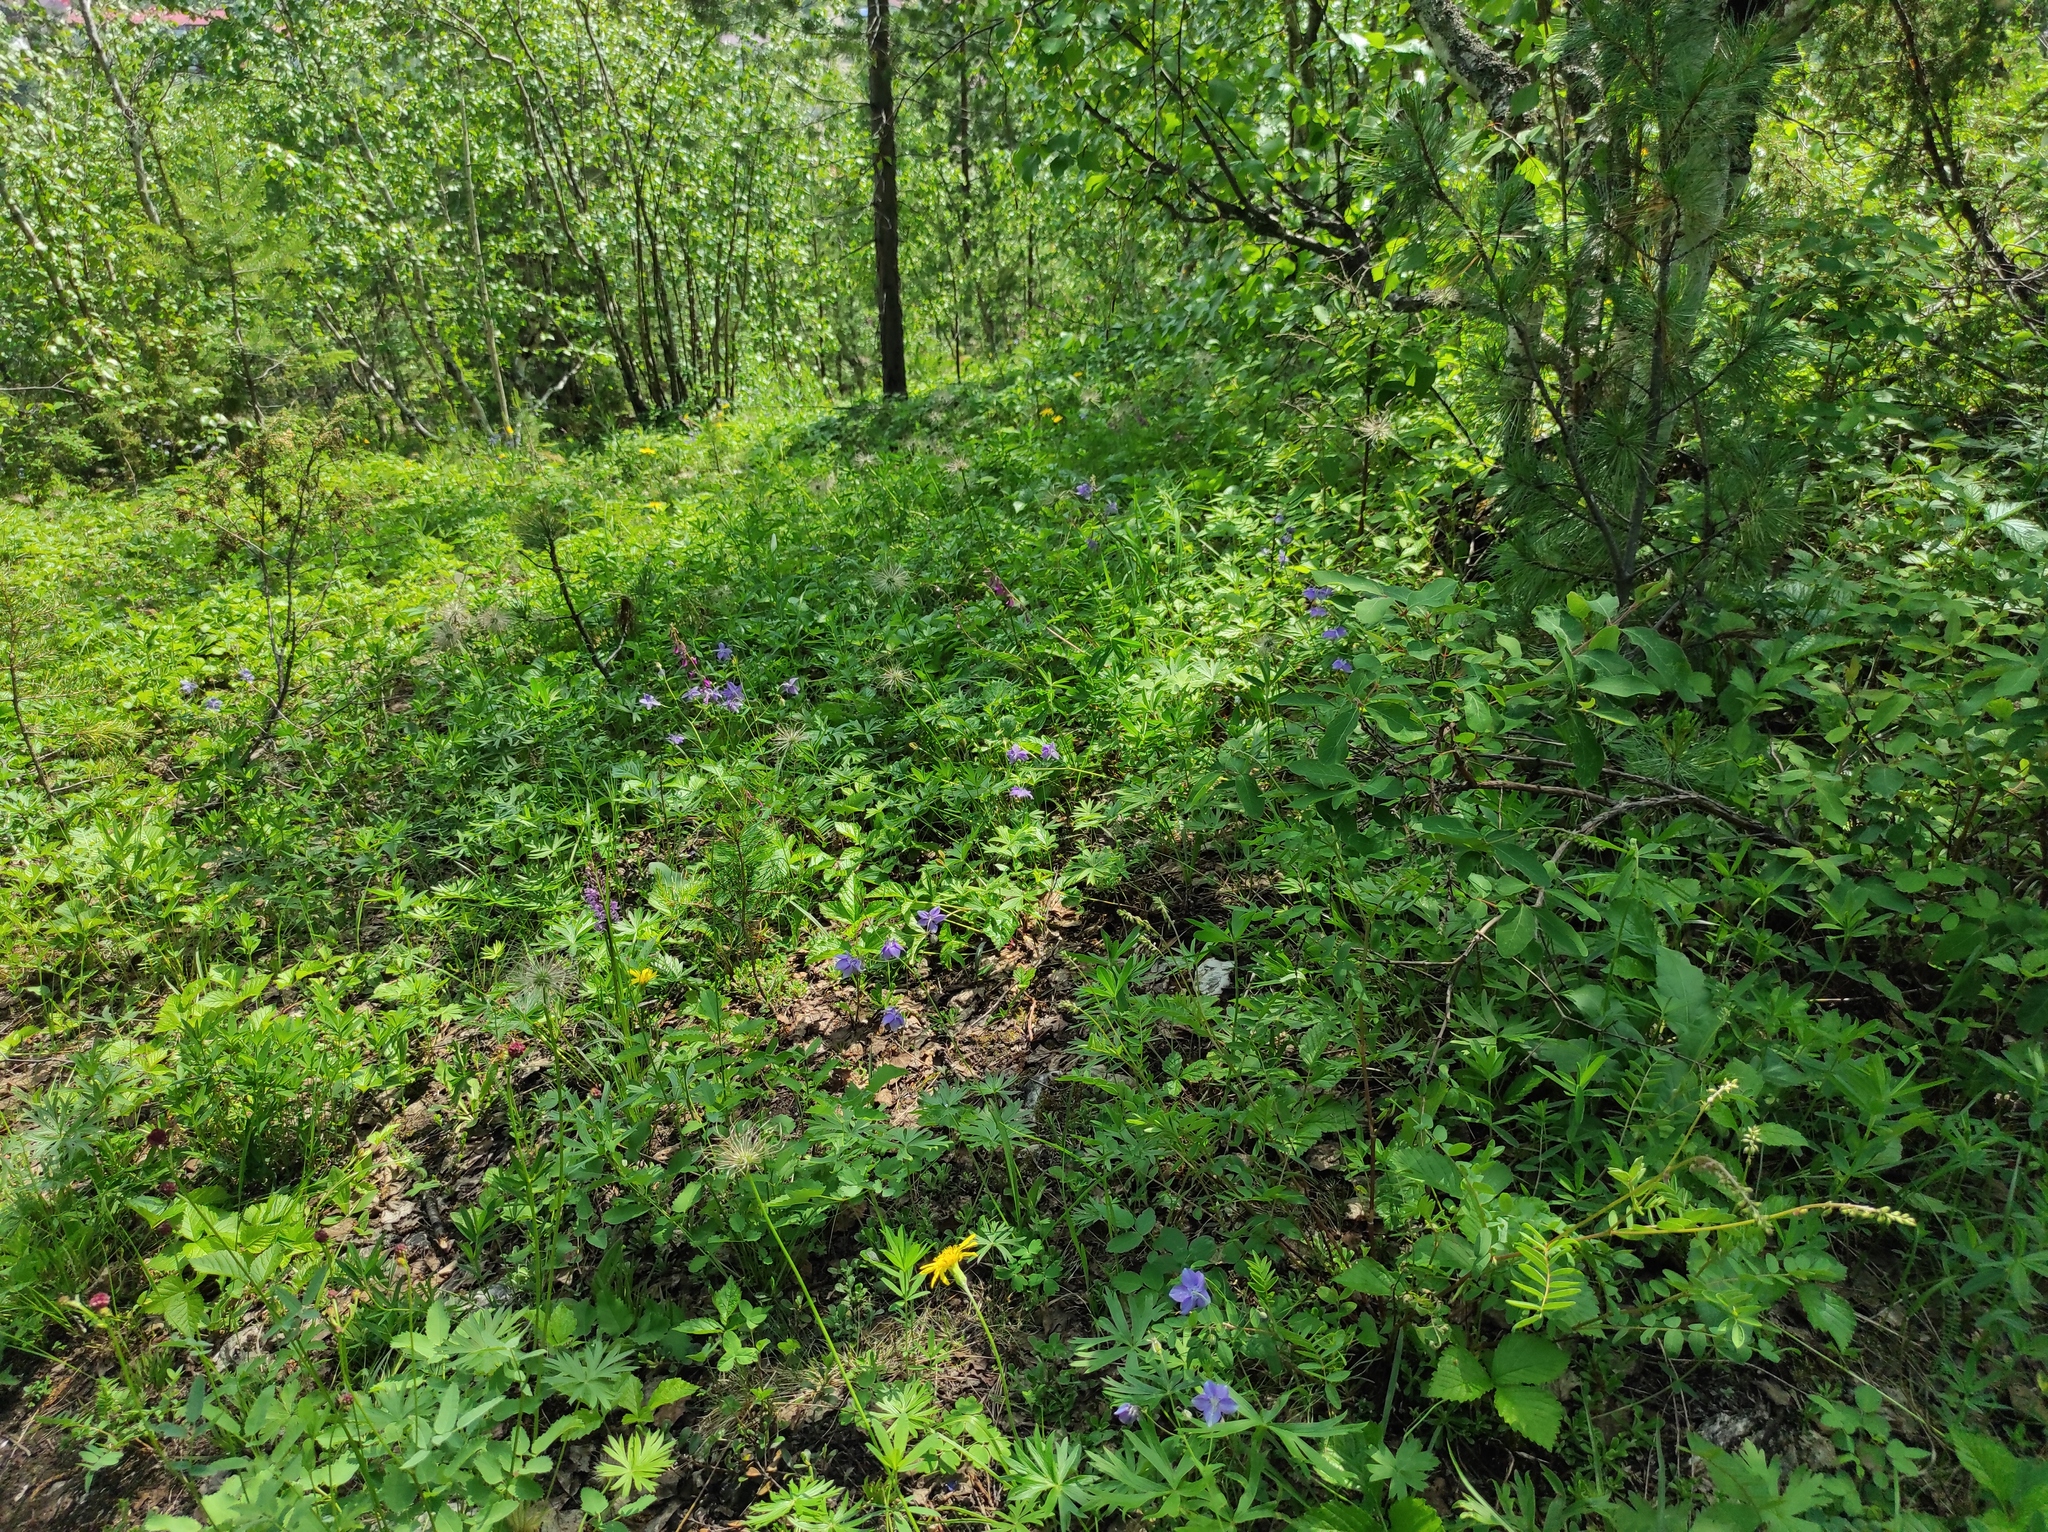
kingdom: Plantae
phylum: Tracheophyta
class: Magnoliopsida
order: Ranunculales
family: Ranunculaceae
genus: Pulsatilla
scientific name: Pulsatilla patens
